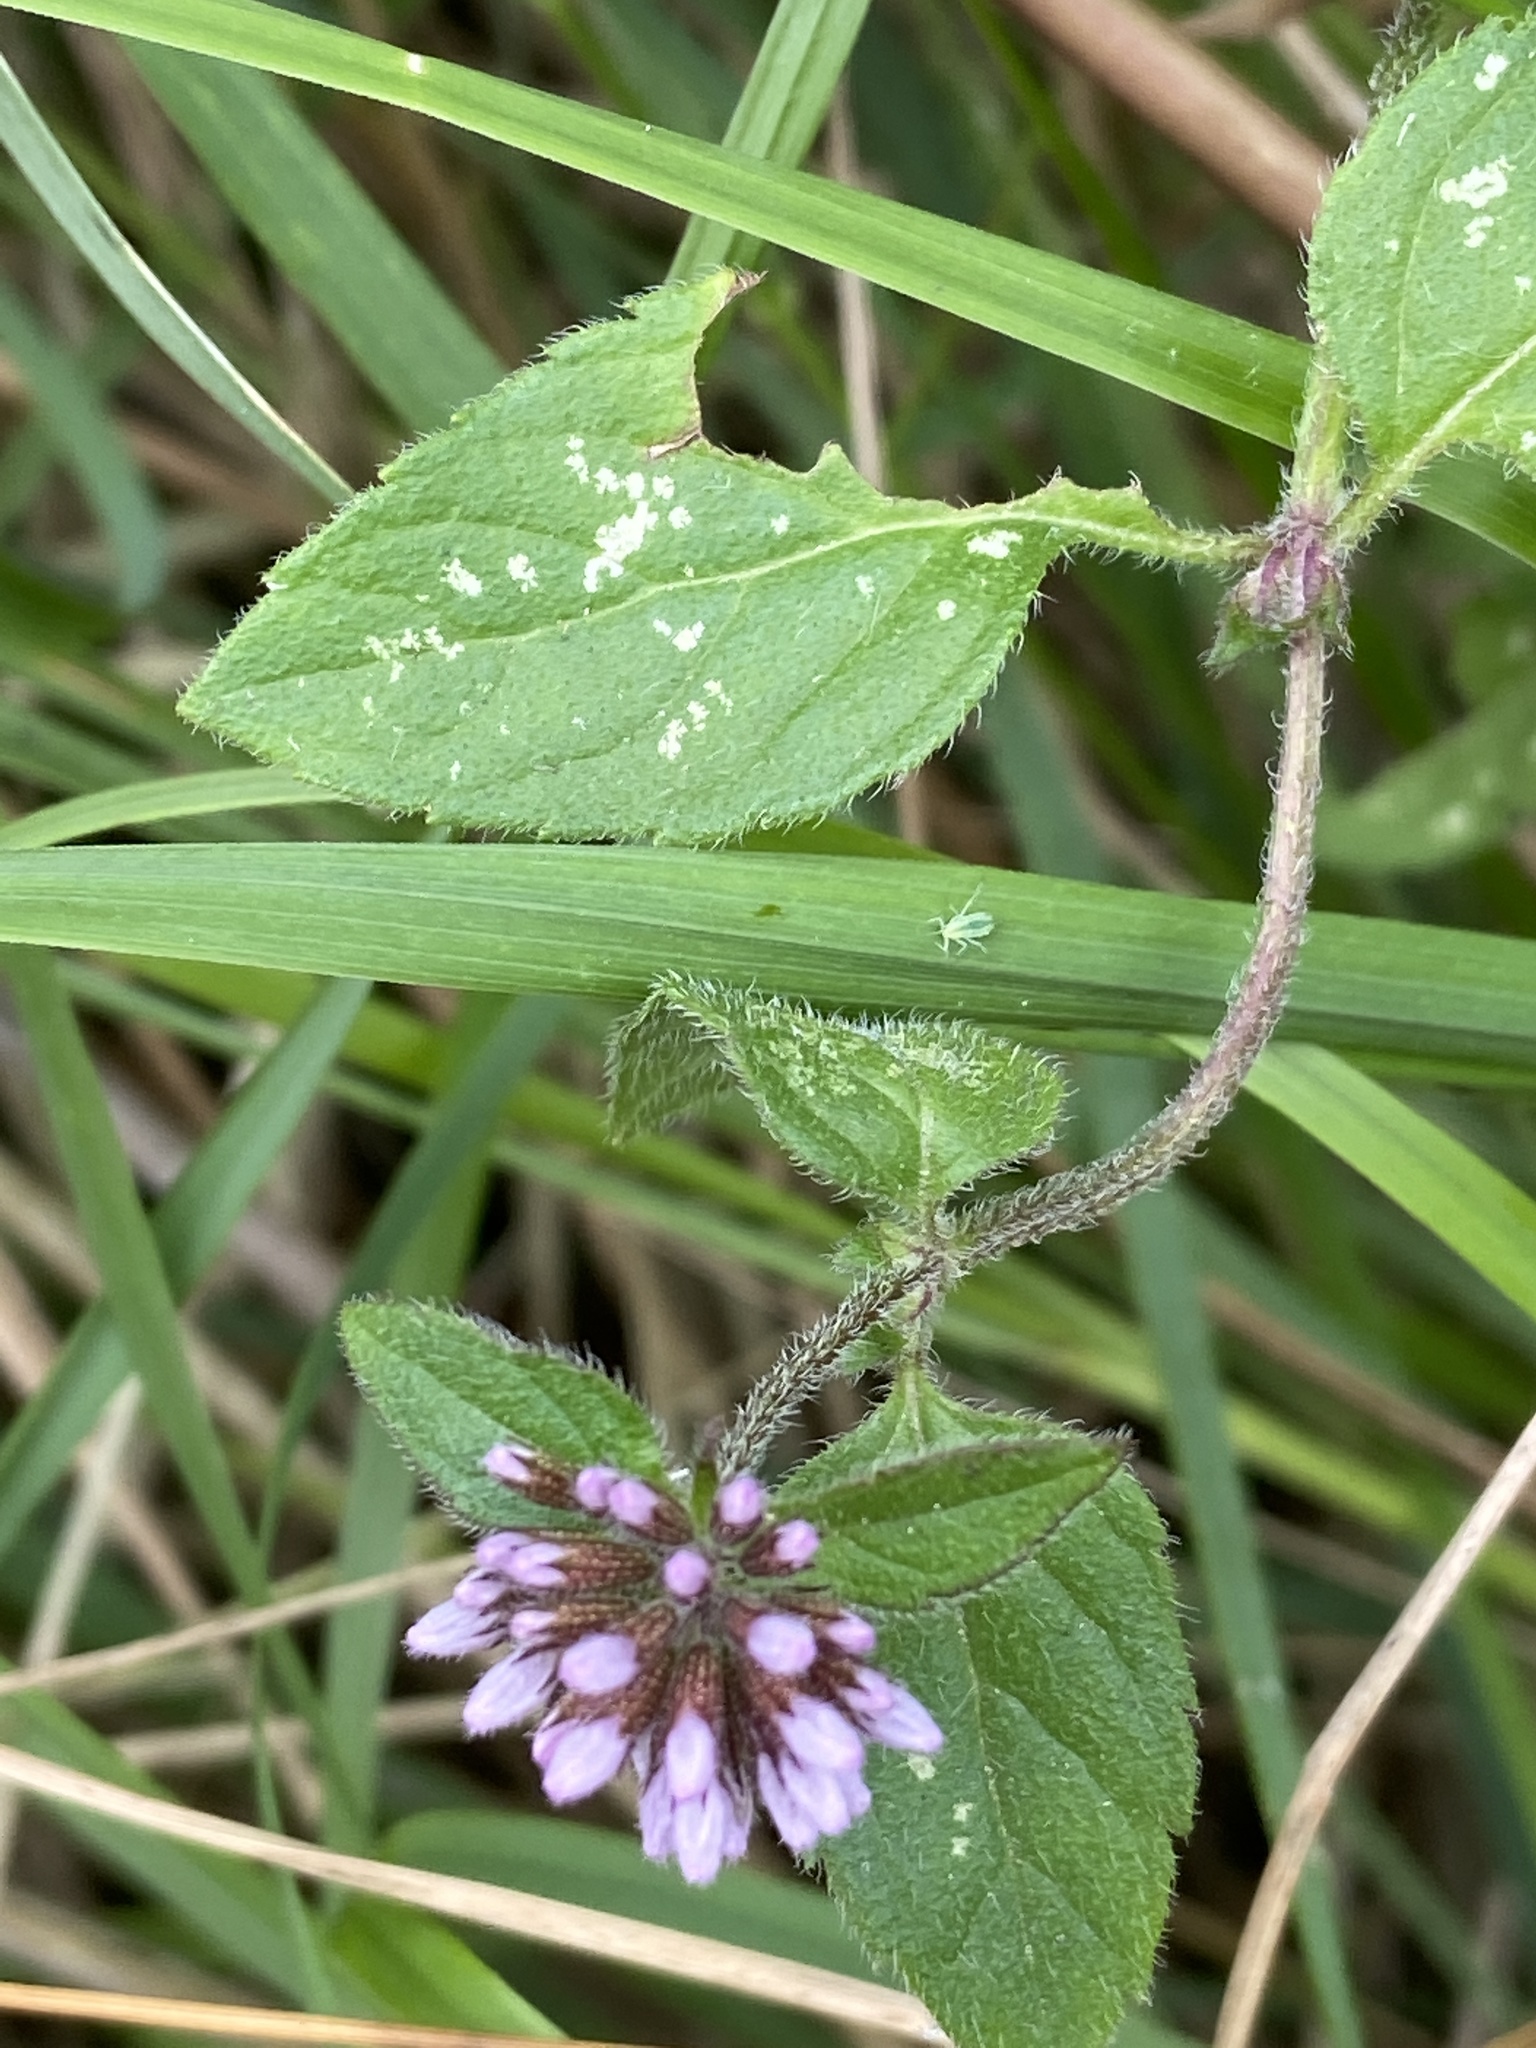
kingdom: Plantae
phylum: Tracheophyta
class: Magnoliopsida
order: Lamiales
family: Lamiaceae
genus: Mentha
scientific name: Mentha aquatica
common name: Water mint
